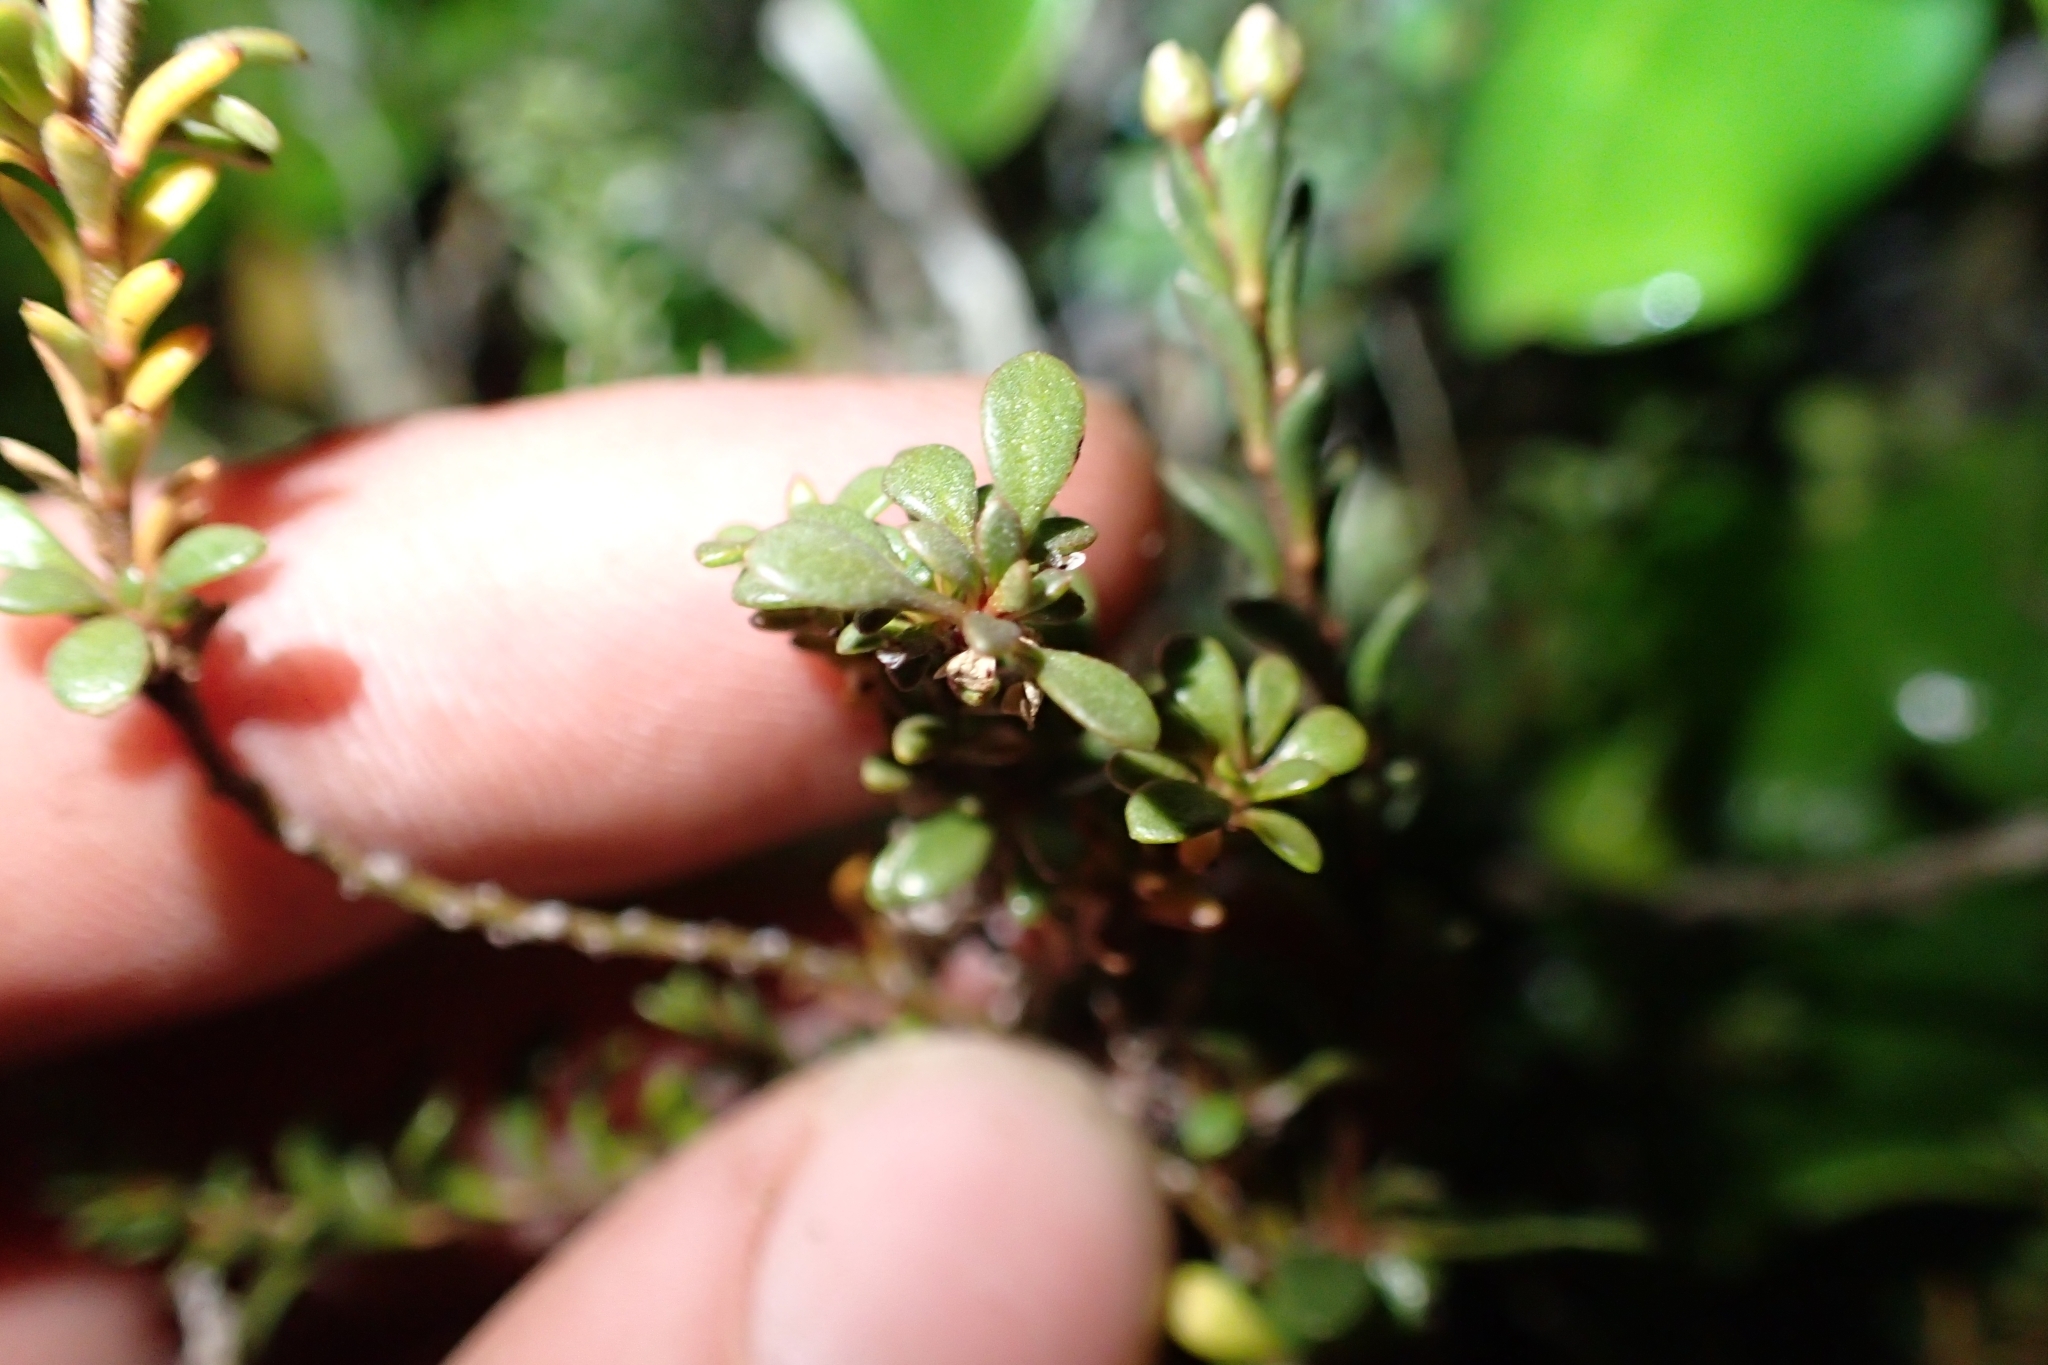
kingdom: Plantae
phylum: Tracheophyta
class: Magnoliopsida
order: Ericales
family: Primulaceae
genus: Samolus
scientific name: Samolus repens
